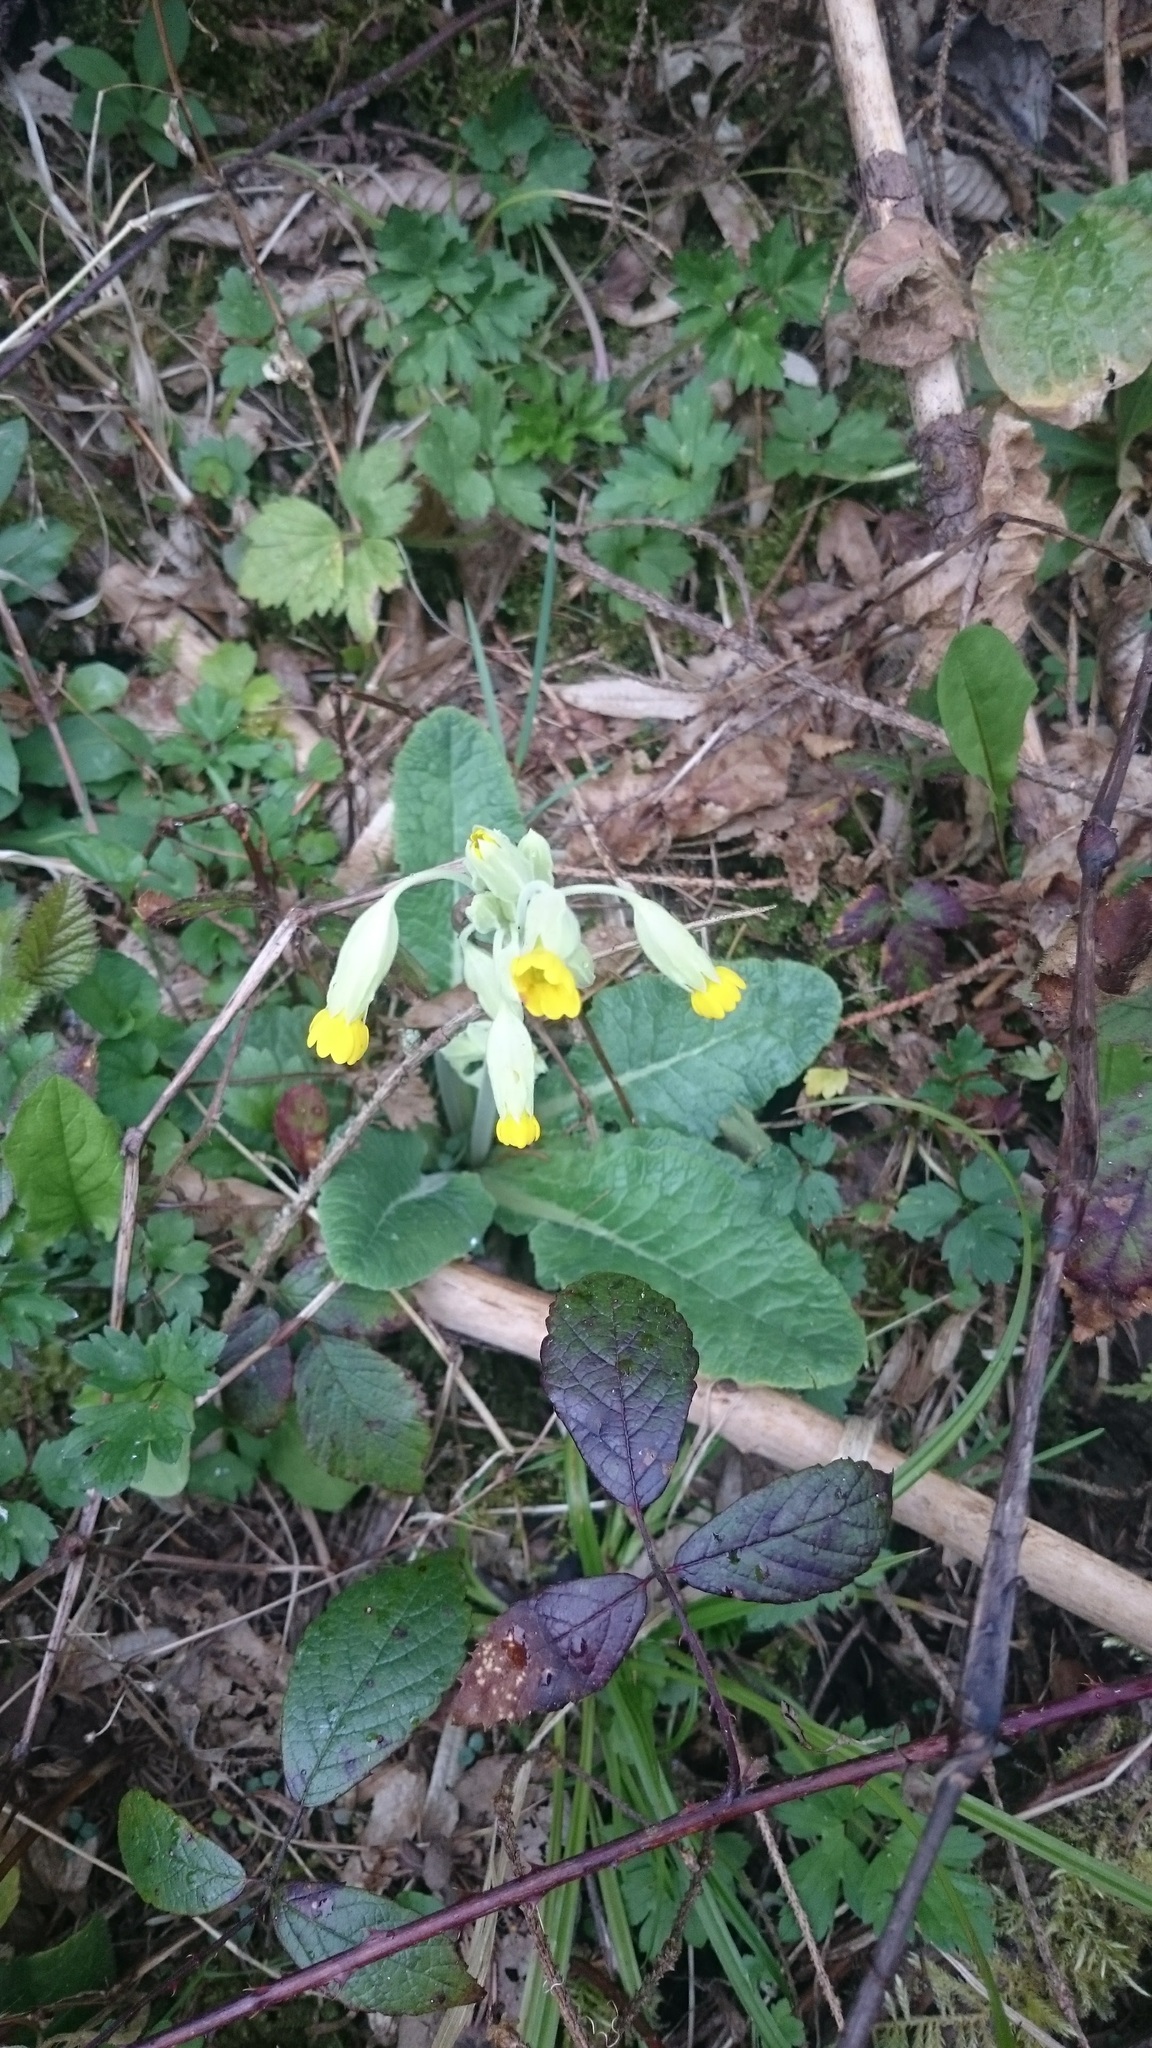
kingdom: Plantae
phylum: Tracheophyta
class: Magnoliopsida
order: Ericales
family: Primulaceae
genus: Primula
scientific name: Primula veris
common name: Cowslip
